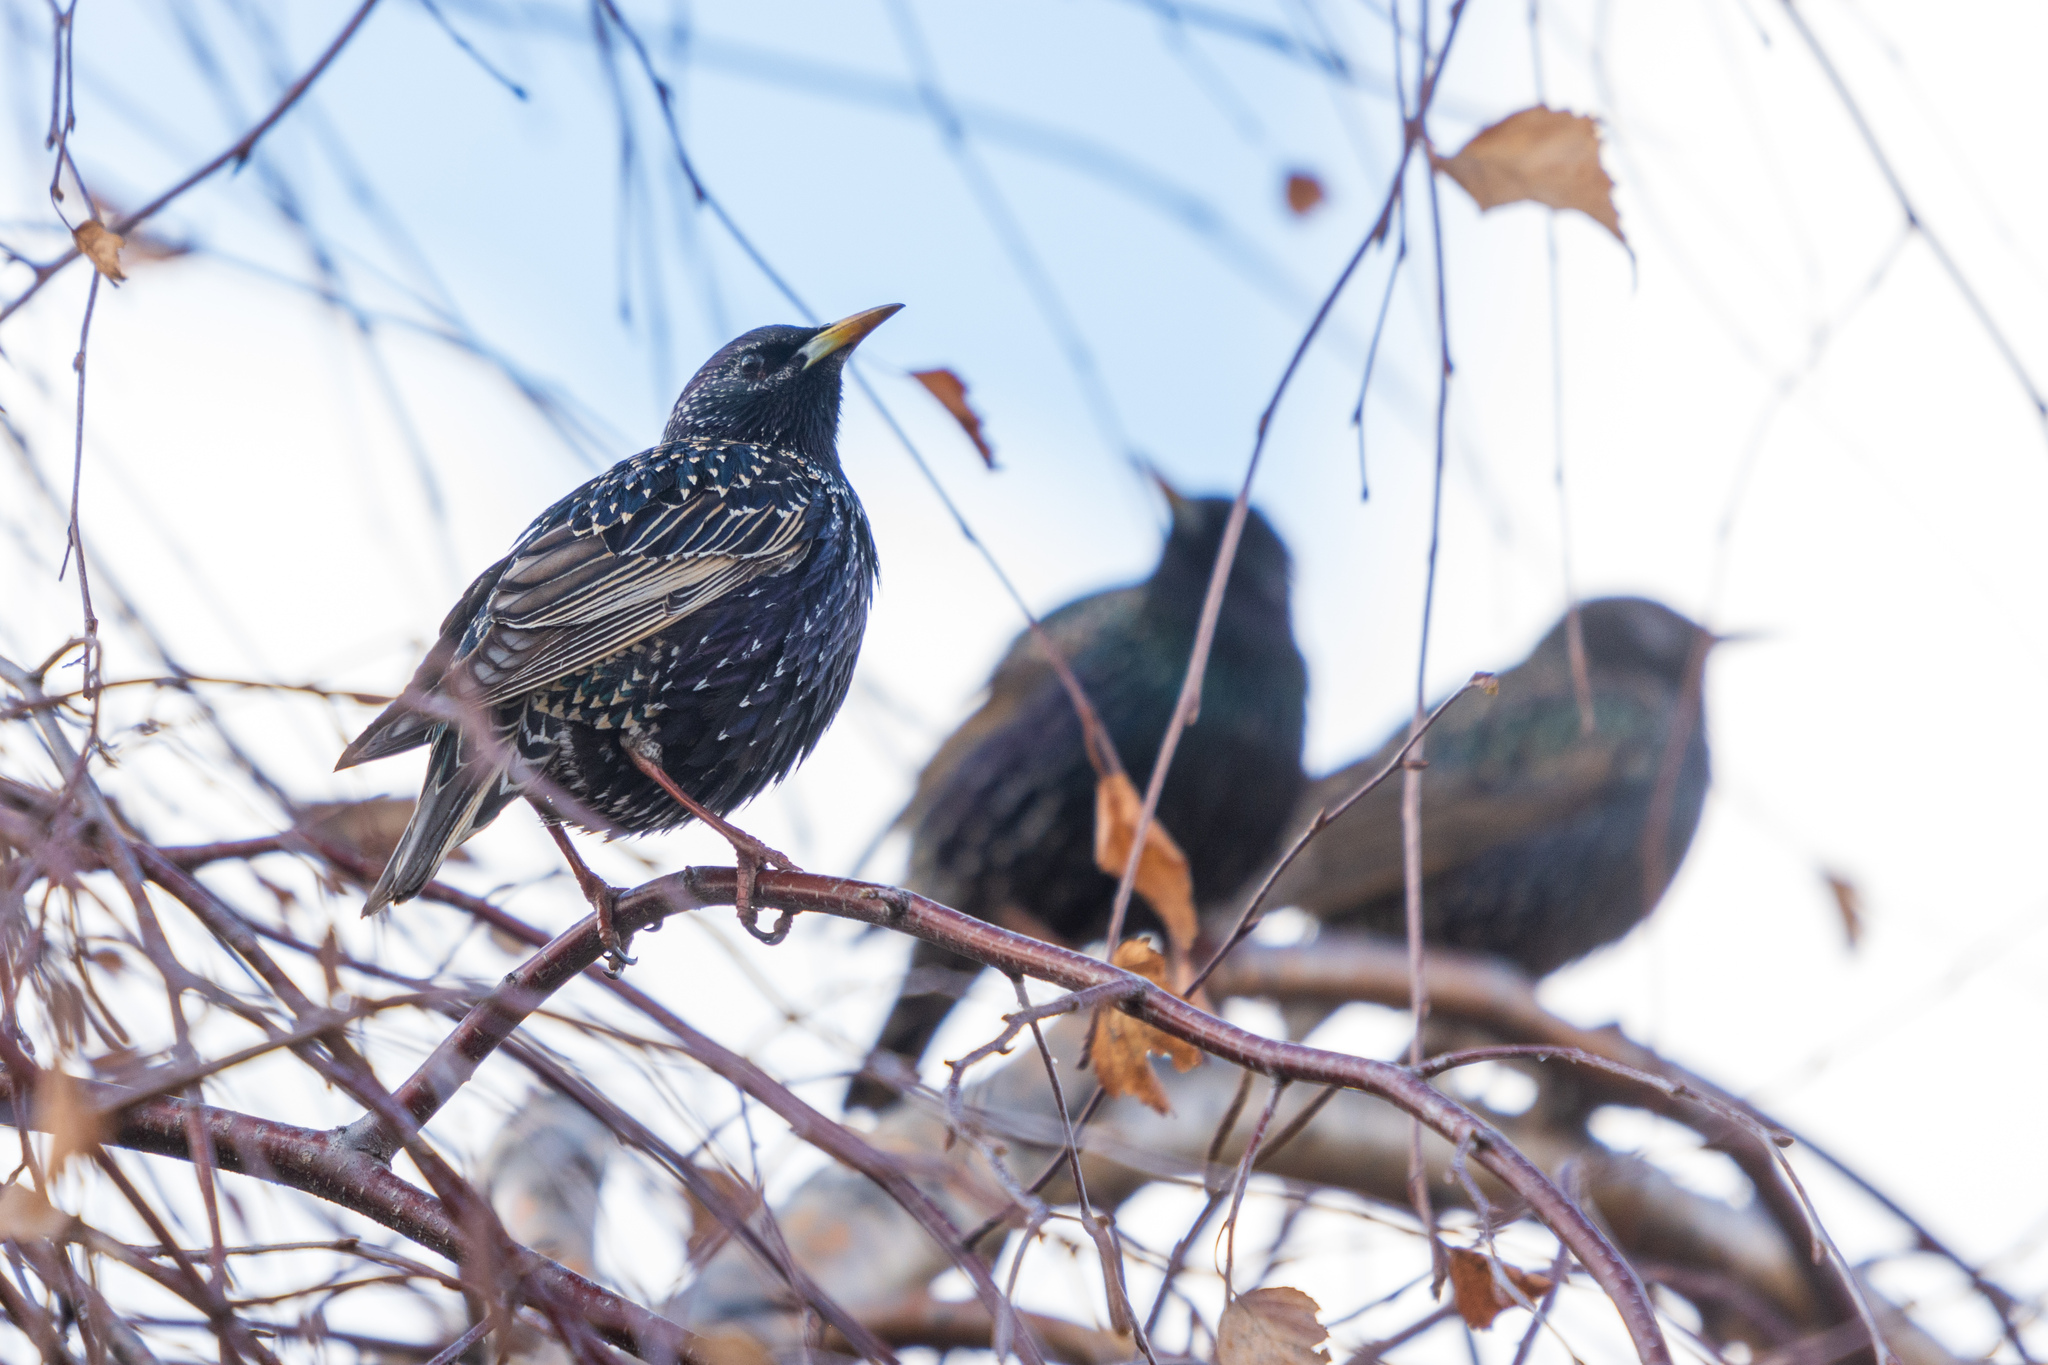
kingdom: Animalia
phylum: Chordata
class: Aves
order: Passeriformes
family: Sturnidae
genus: Sturnus
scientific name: Sturnus vulgaris
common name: Common starling
